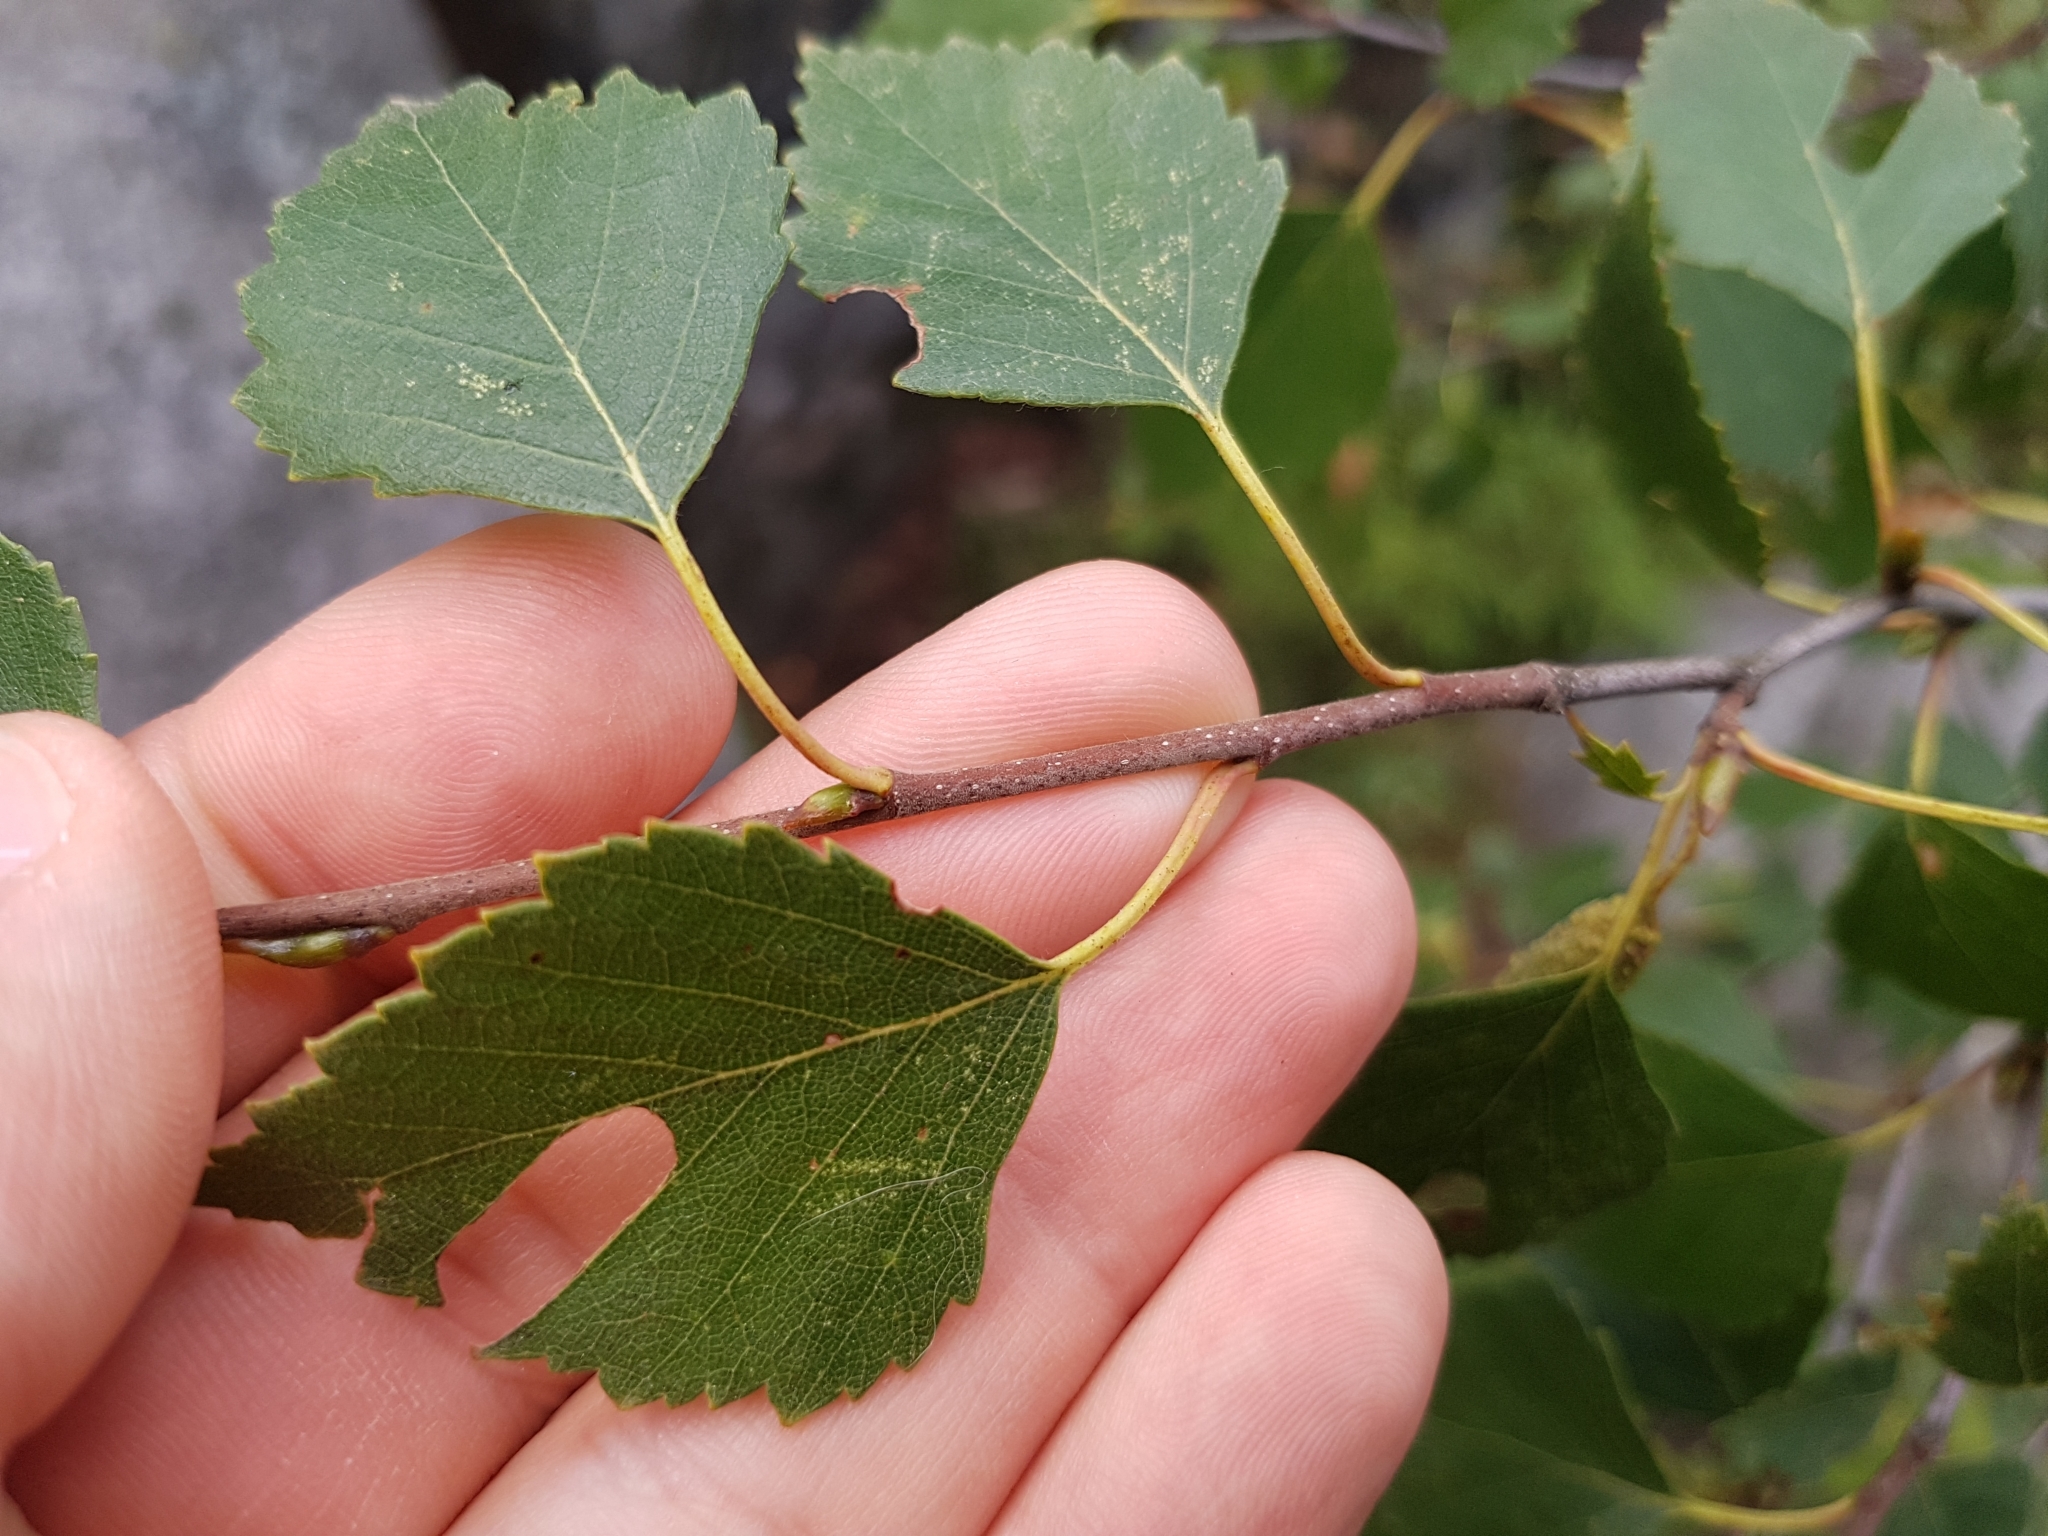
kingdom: Plantae
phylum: Tracheophyta
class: Magnoliopsida
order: Fagales
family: Betulaceae
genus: Betula
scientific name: Betula pendula
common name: Silver birch
